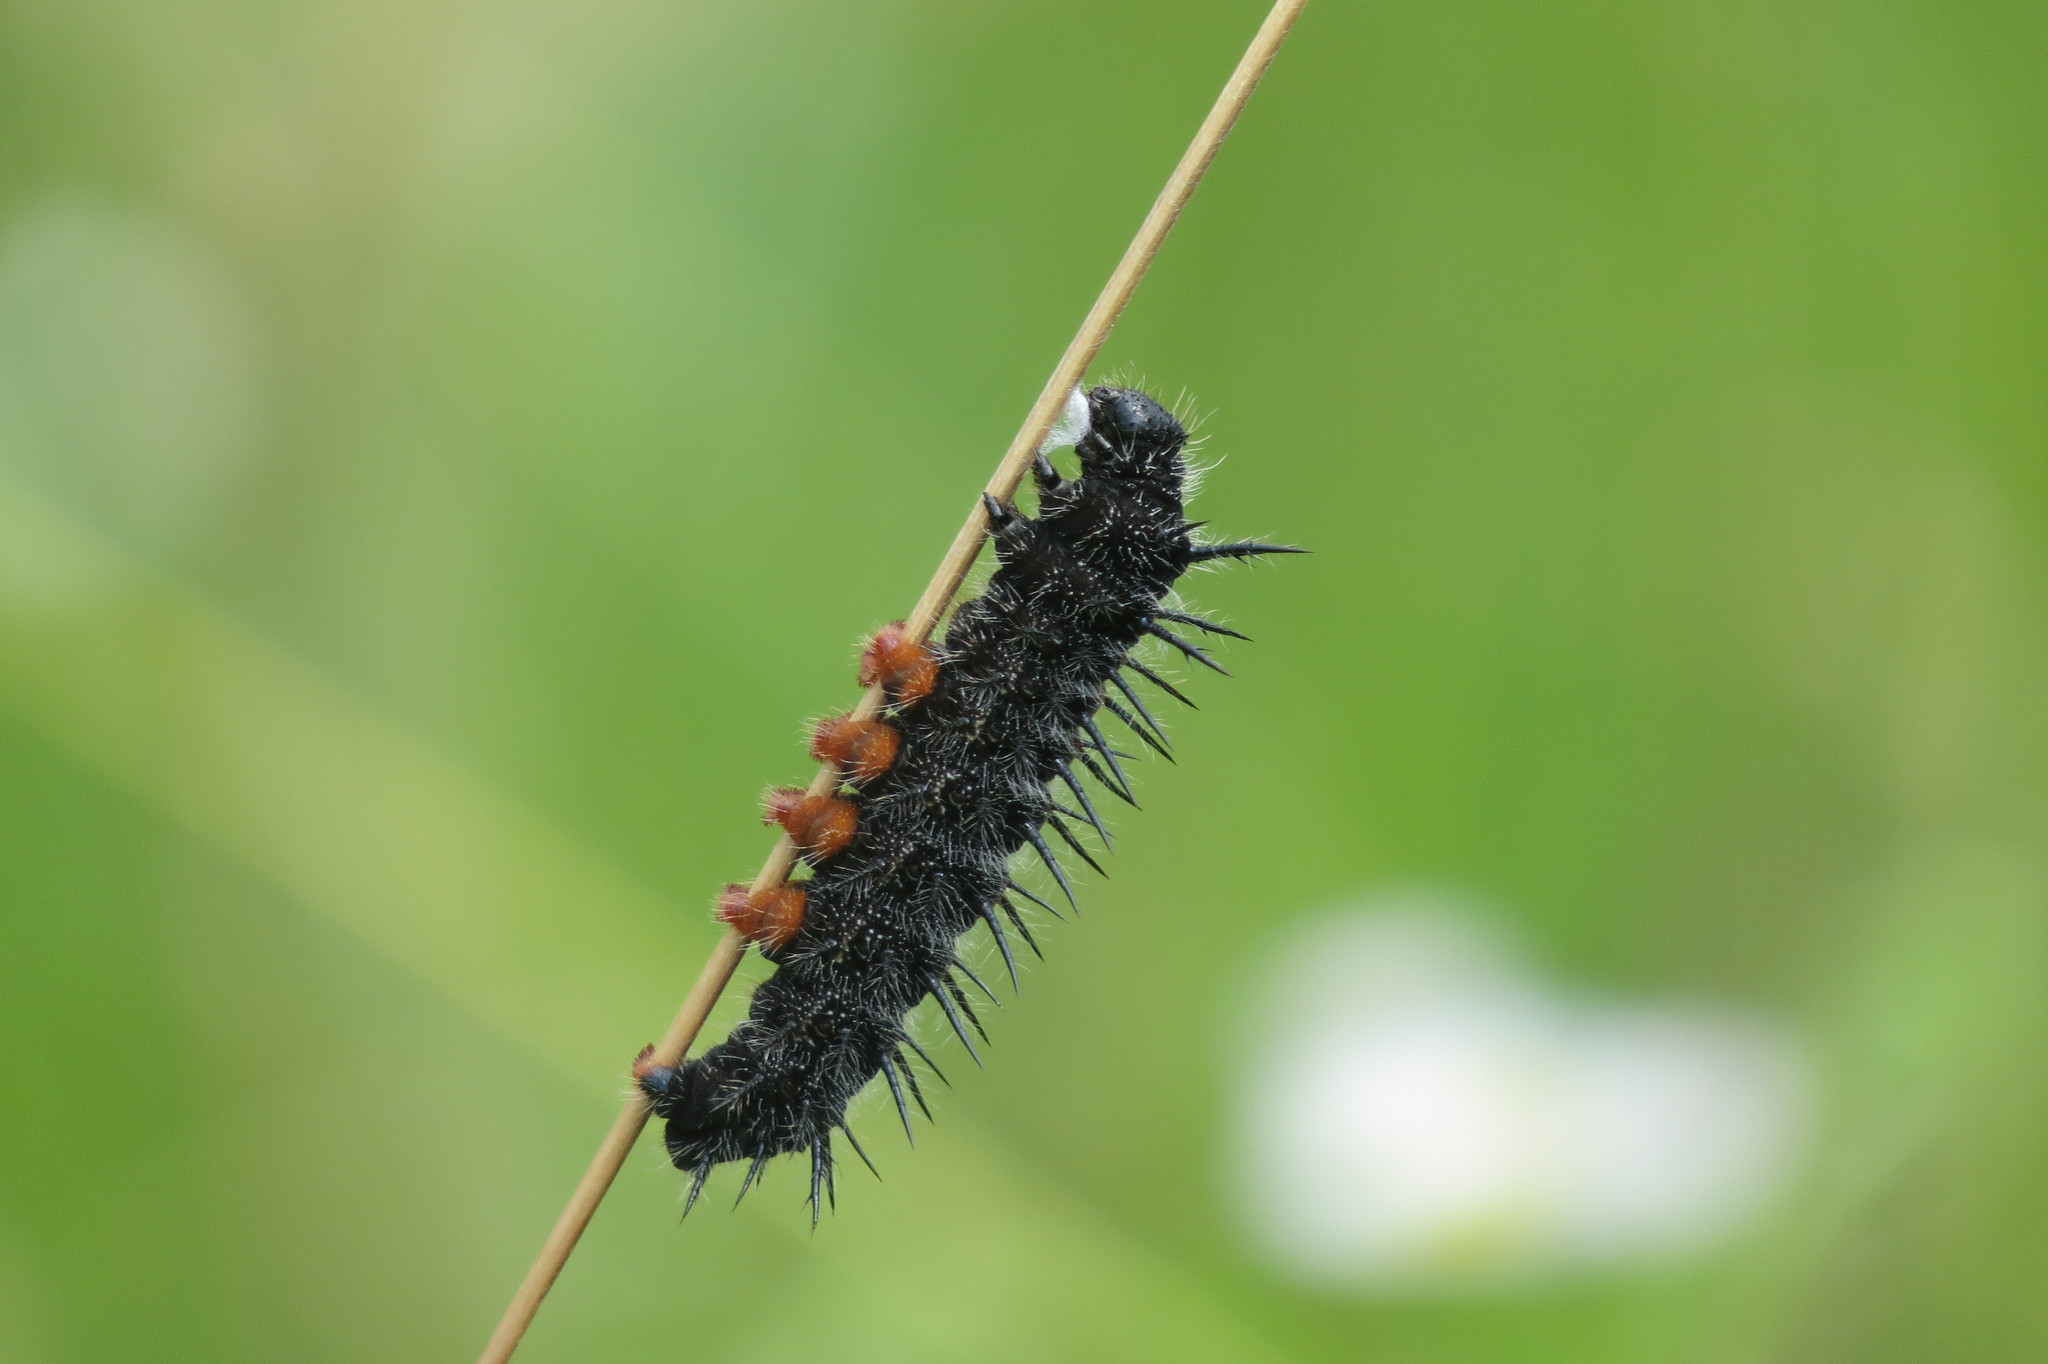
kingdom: Animalia
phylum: Arthropoda
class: Insecta
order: Lepidoptera
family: Nymphalidae
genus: Nymphalis
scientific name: Nymphalis antiopa
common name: Camberwell beauty
